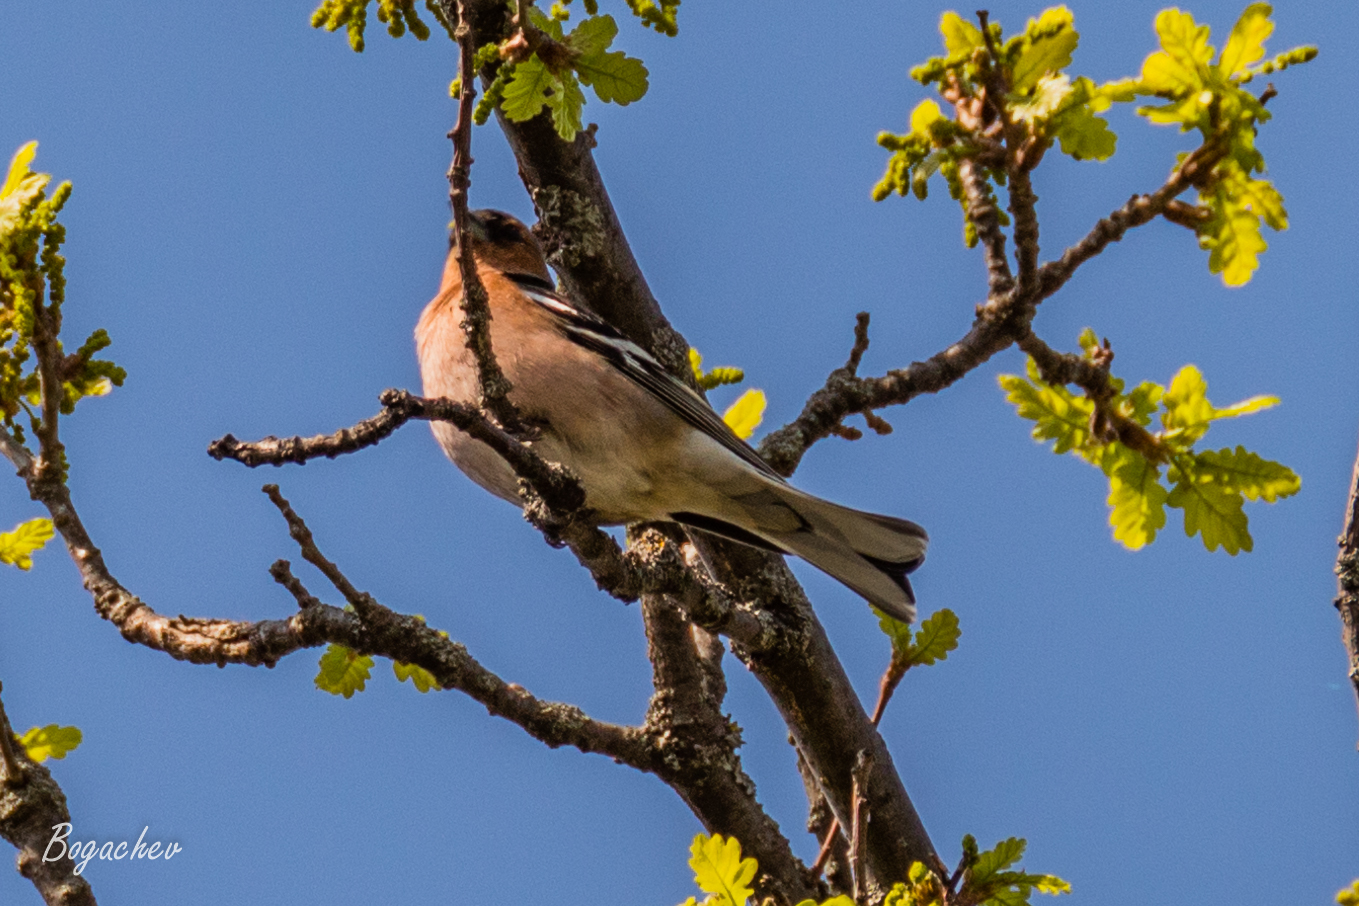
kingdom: Animalia
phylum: Chordata
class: Aves
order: Passeriformes
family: Fringillidae
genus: Fringilla
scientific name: Fringilla coelebs
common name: Common chaffinch
